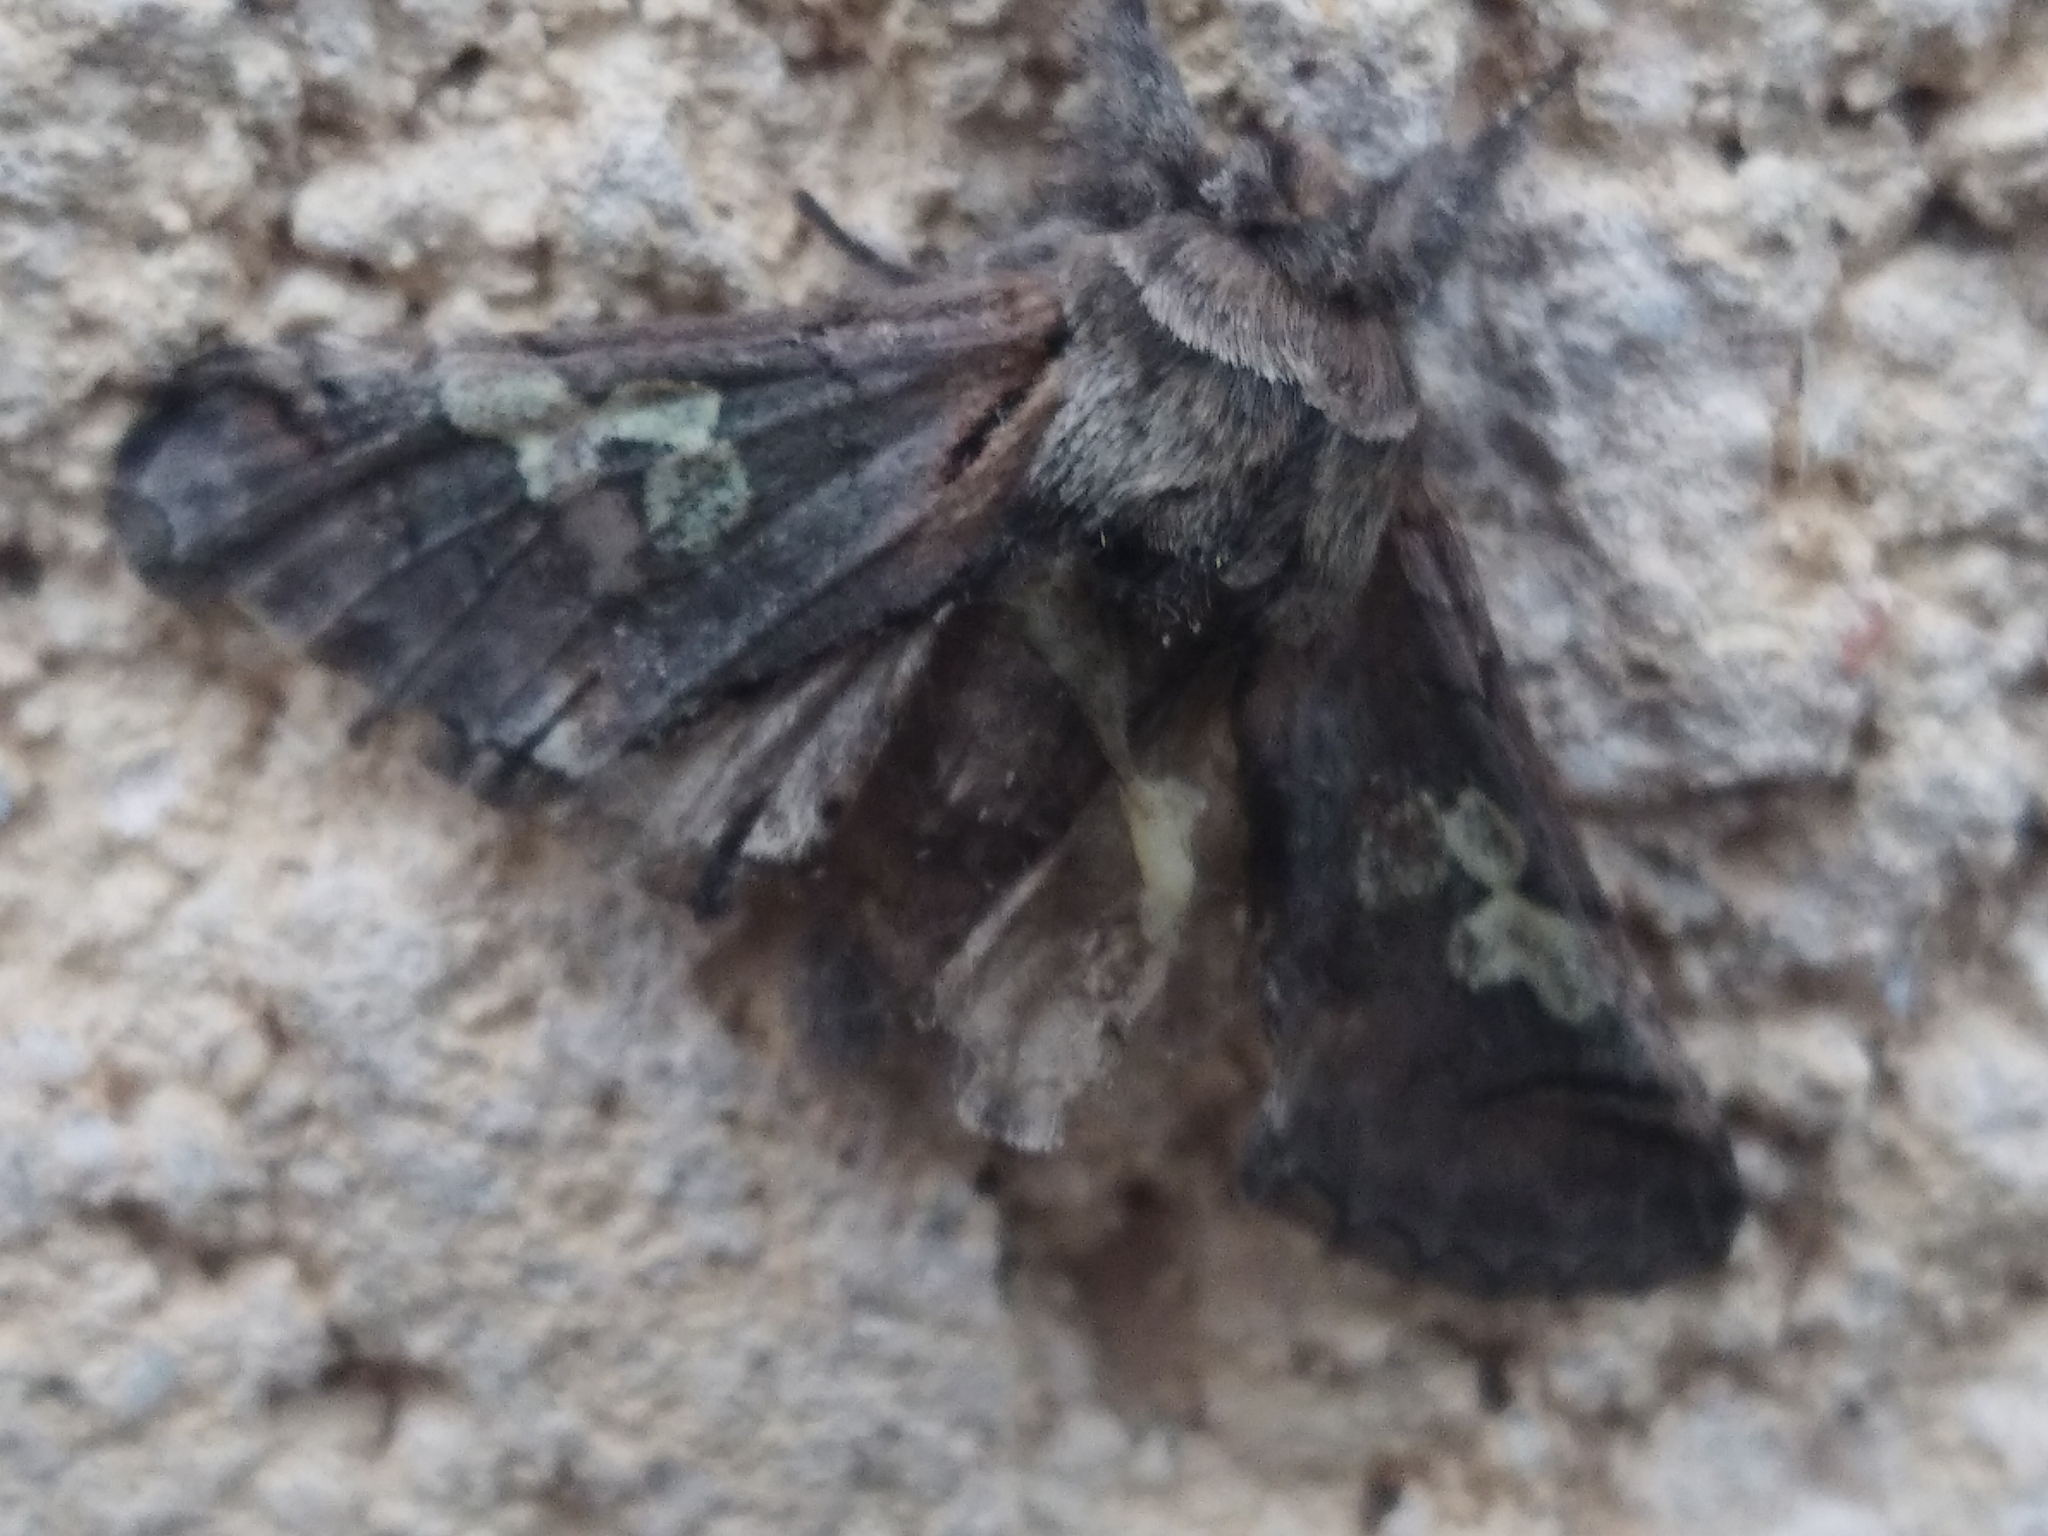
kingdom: Animalia
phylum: Arthropoda
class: Insecta
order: Lepidoptera
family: Noctuidae
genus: Diloba
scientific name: Diloba caeruleocephala
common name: Figure of eight
